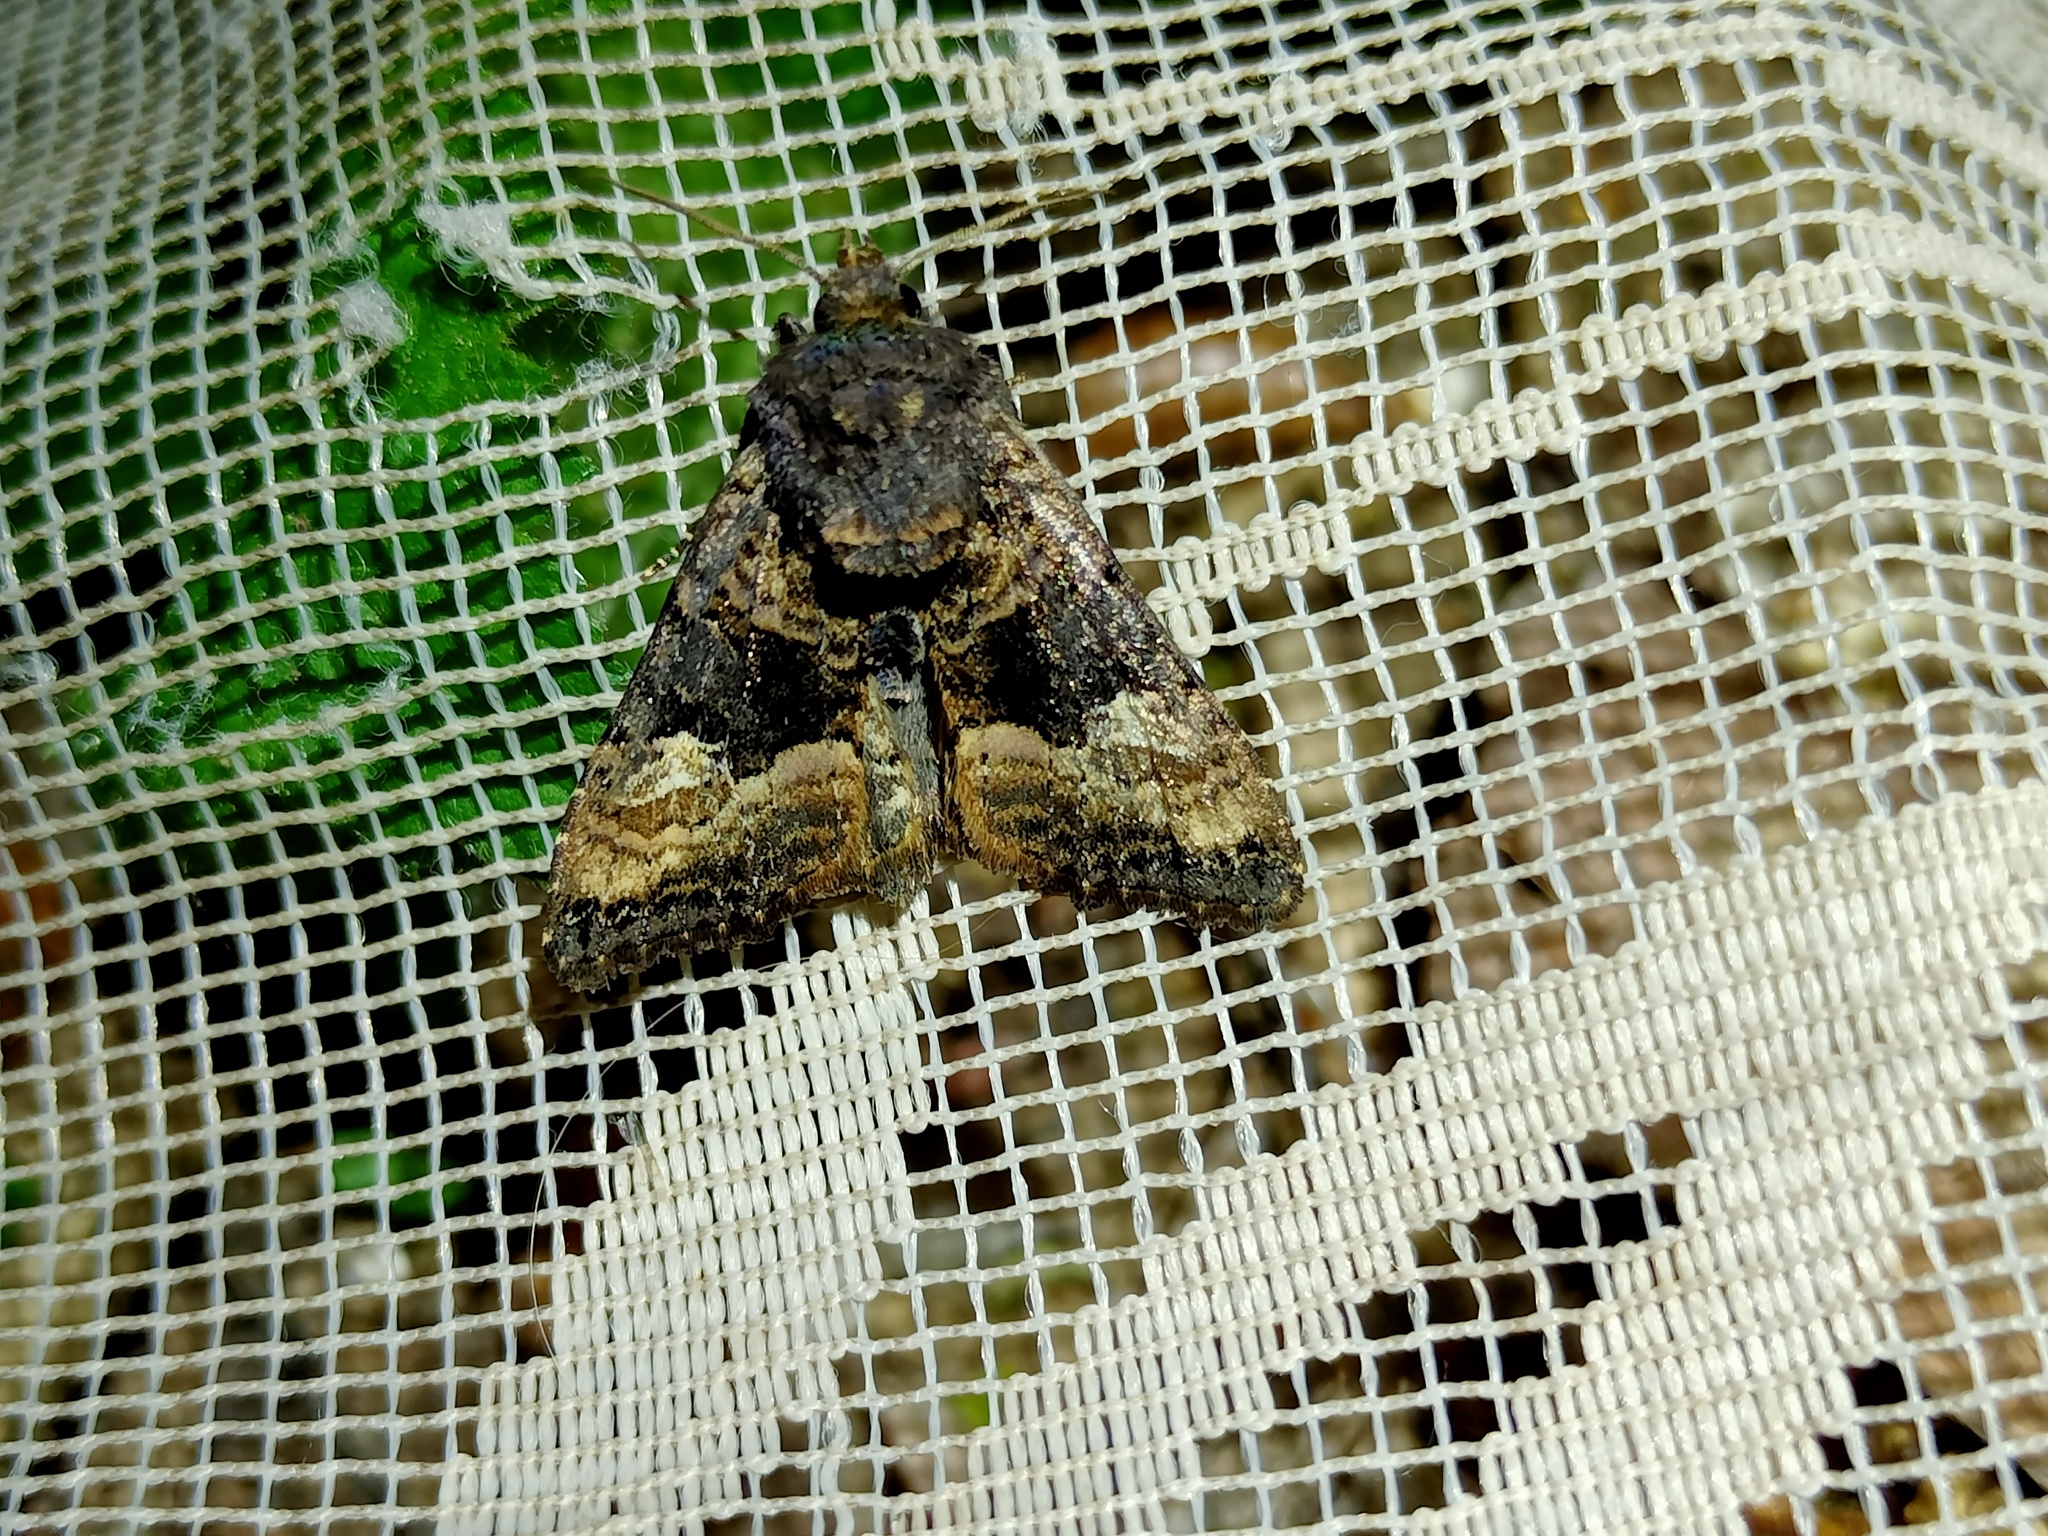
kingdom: Animalia
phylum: Arthropoda
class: Insecta
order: Lepidoptera
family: Noctuidae
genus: Euplexia
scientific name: Euplexia lucipara
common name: Small angle shades
